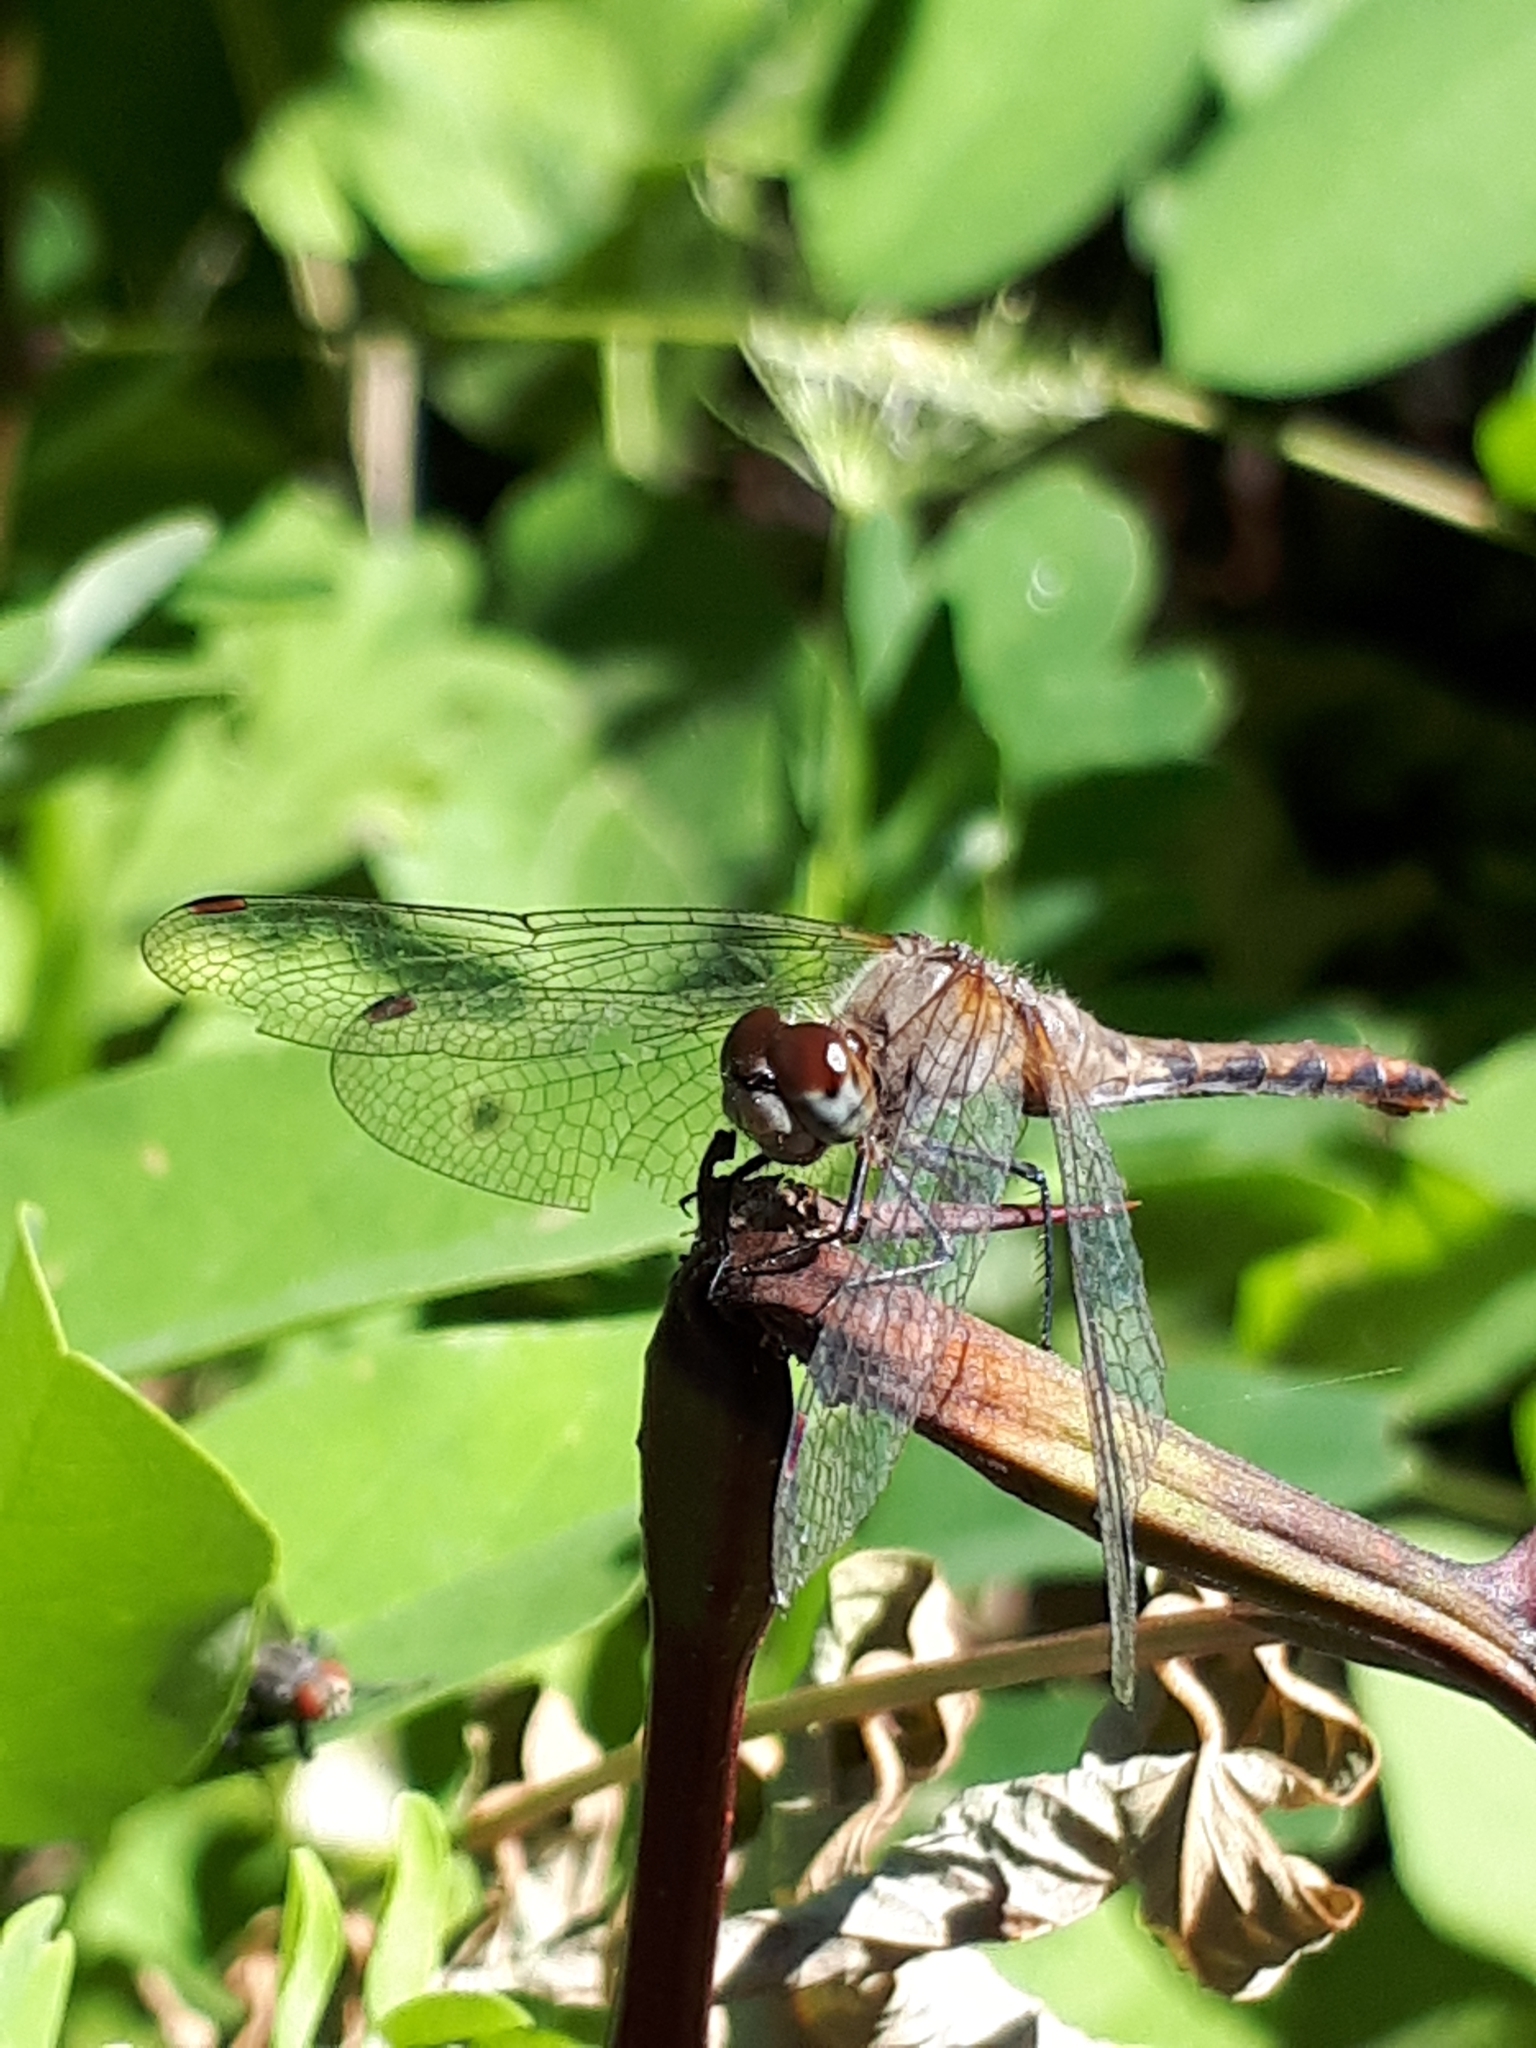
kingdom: Animalia
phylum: Arthropoda
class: Insecta
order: Odonata
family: Libellulidae
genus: Sympetrum
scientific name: Sympetrum
